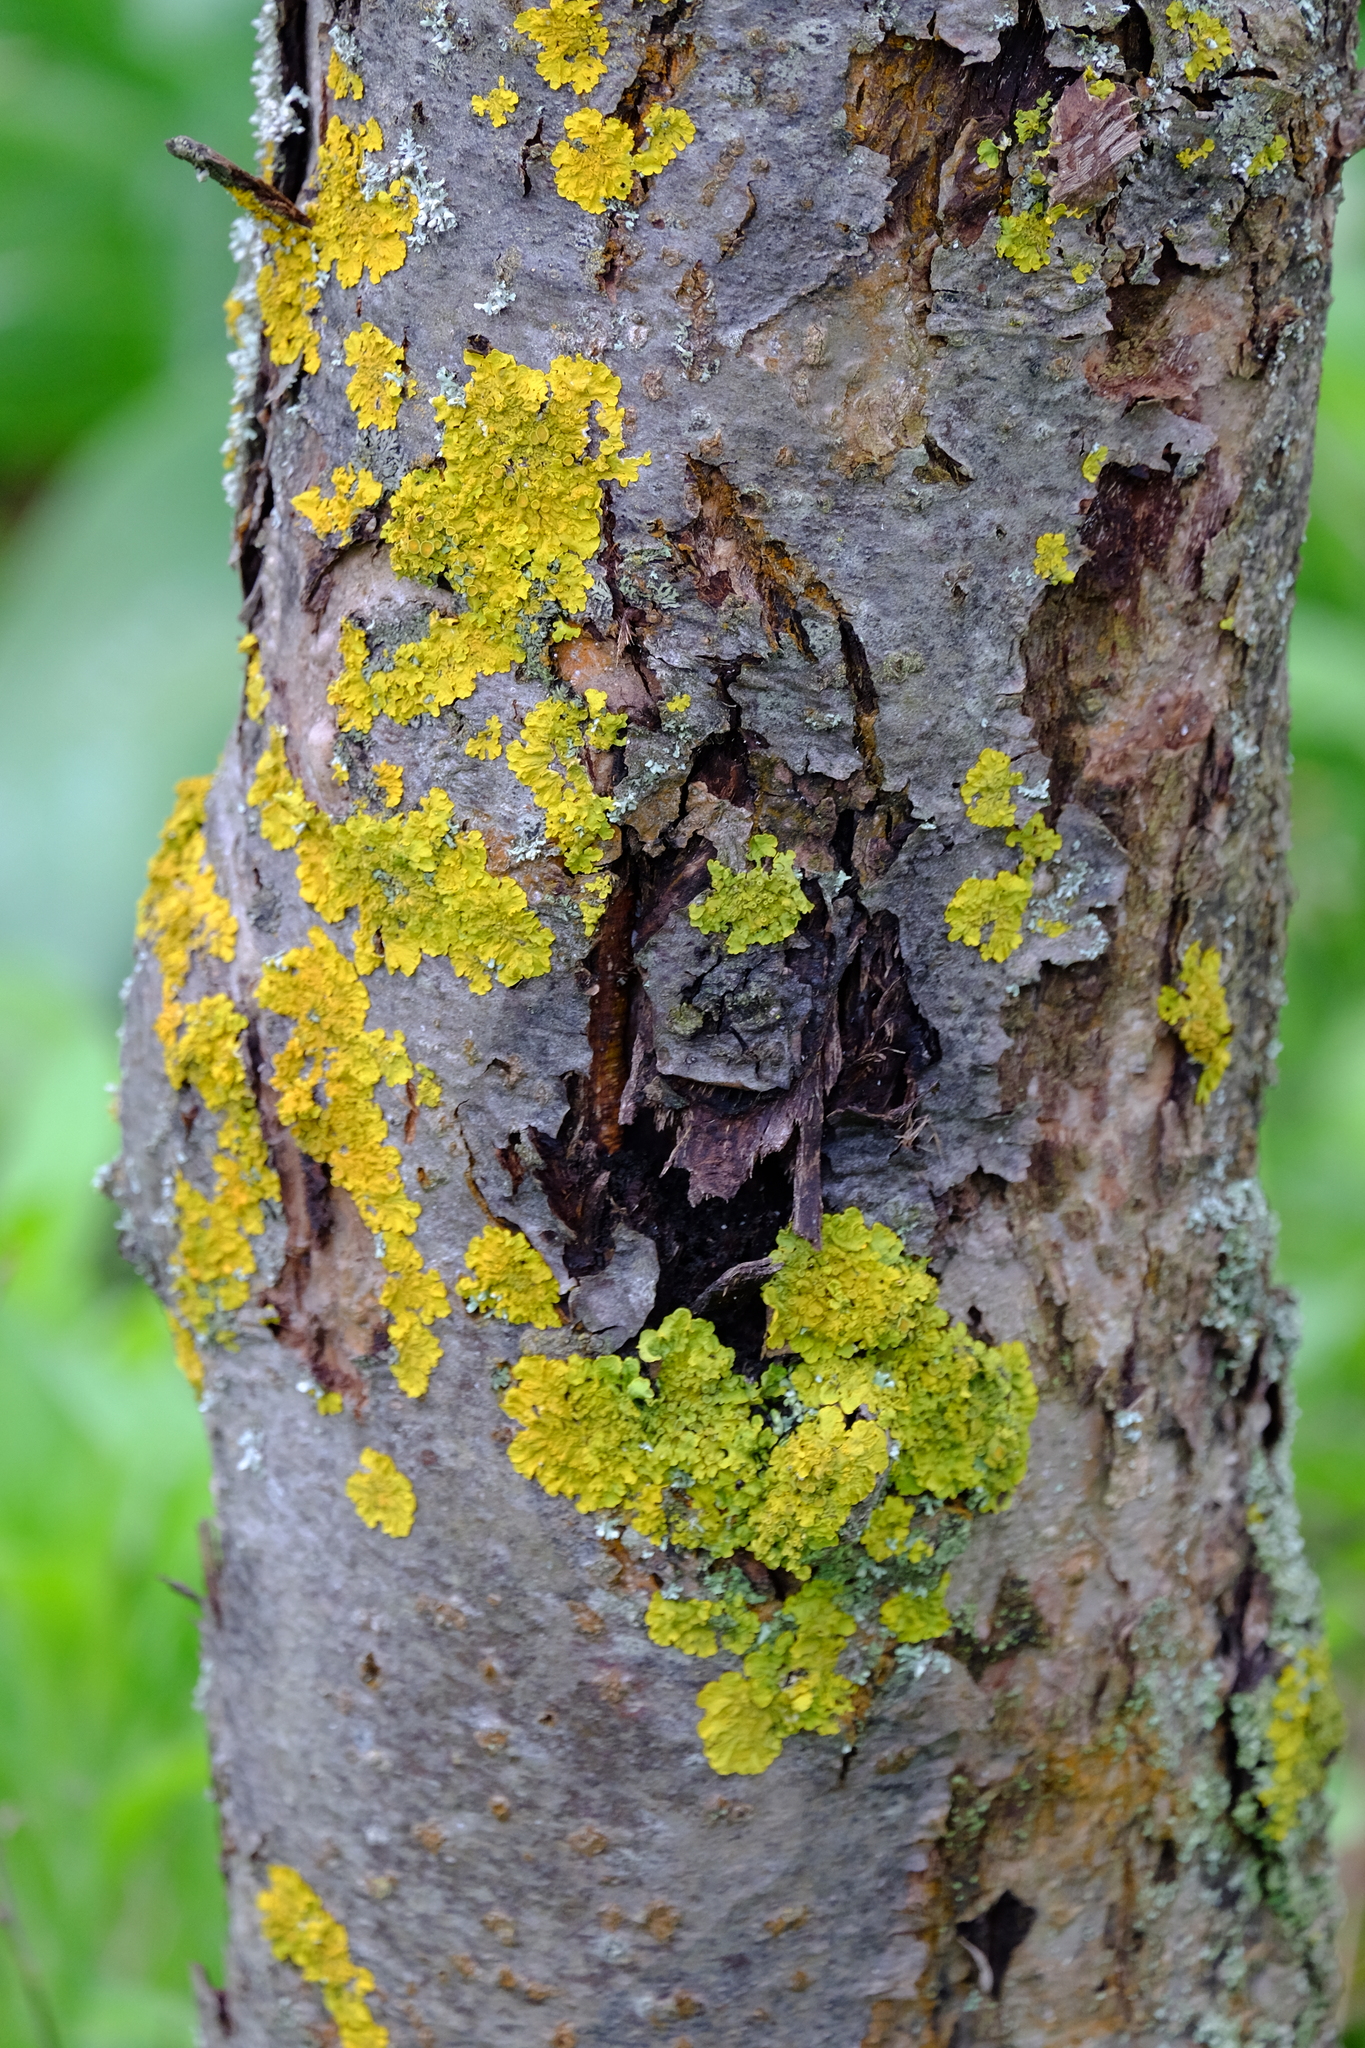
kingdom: Fungi
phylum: Ascomycota
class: Lecanoromycetes
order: Teloschistales
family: Teloschistaceae
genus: Xanthoria
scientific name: Xanthoria parietina
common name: Common orange lichen
